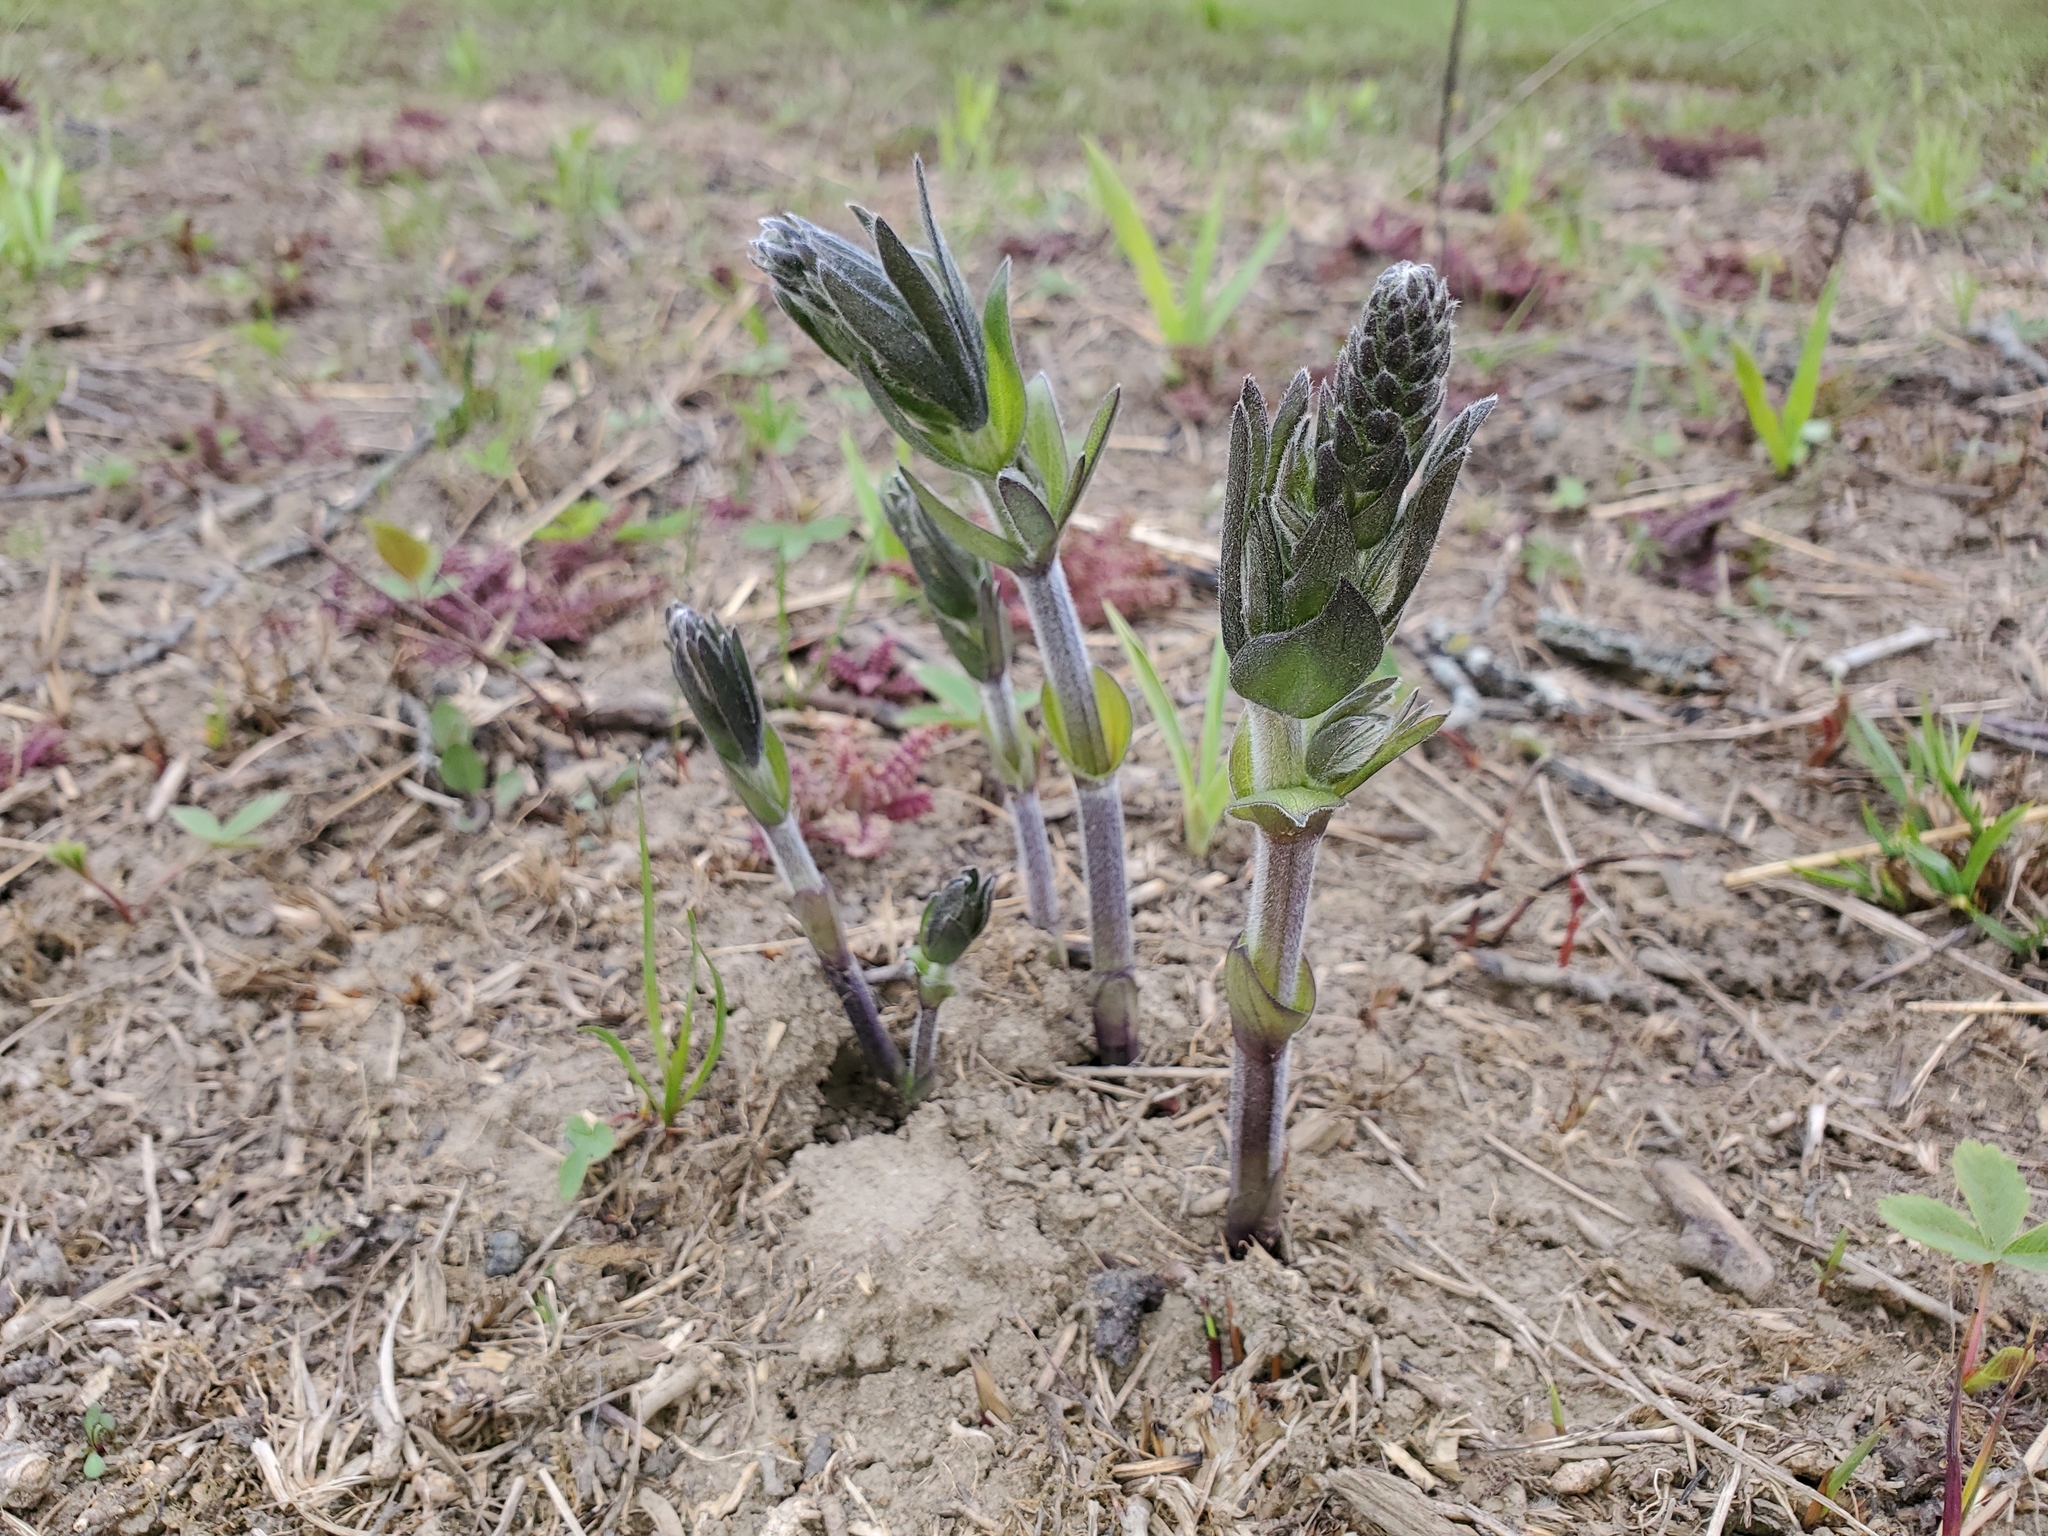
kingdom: Plantae
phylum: Tracheophyta
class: Magnoliopsida
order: Fabales
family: Fabaceae
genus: Baptisia
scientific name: Baptisia bracteata
